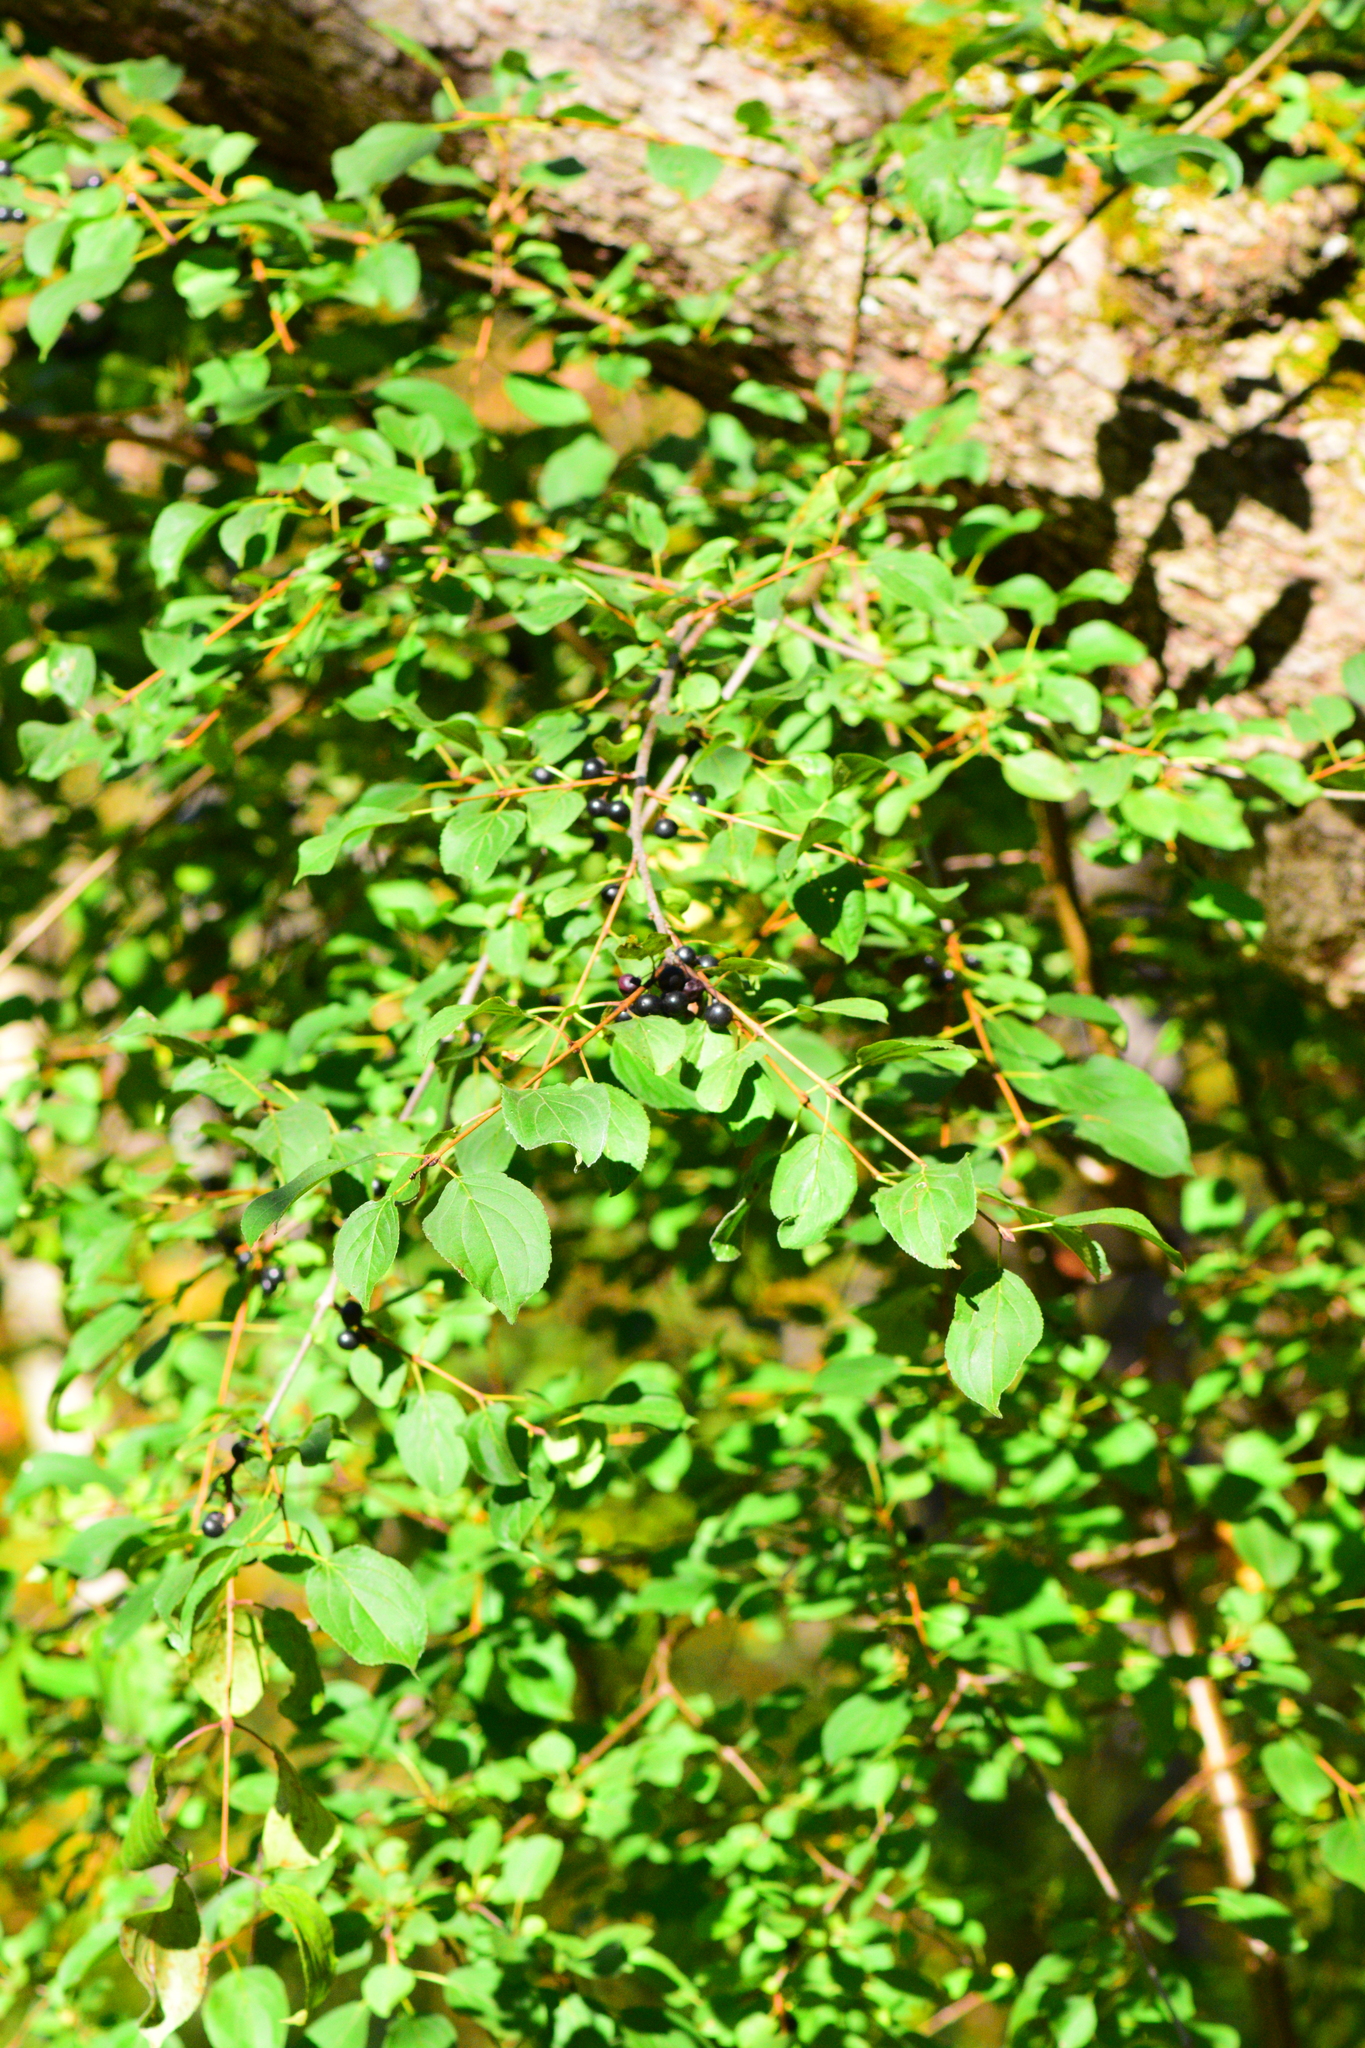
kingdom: Plantae
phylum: Tracheophyta
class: Magnoliopsida
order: Rosales
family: Rhamnaceae
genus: Rhamnus
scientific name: Rhamnus cathartica
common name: Common buckthorn
